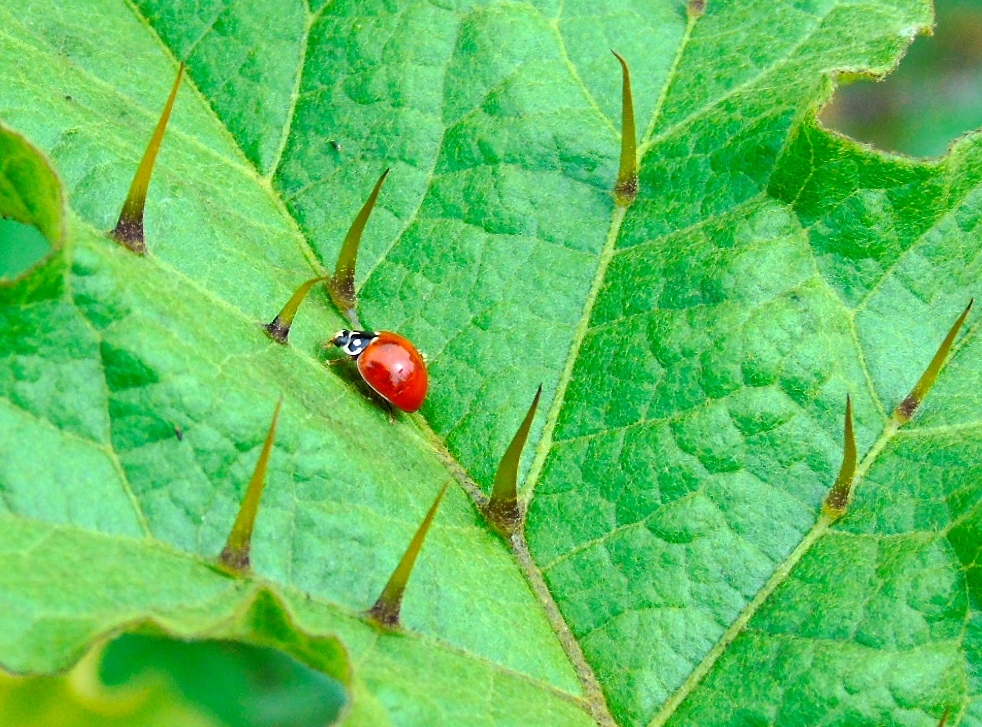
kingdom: Animalia
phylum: Arthropoda
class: Insecta
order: Coleoptera
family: Coccinellidae
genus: Cycloneda
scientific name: Cycloneda
